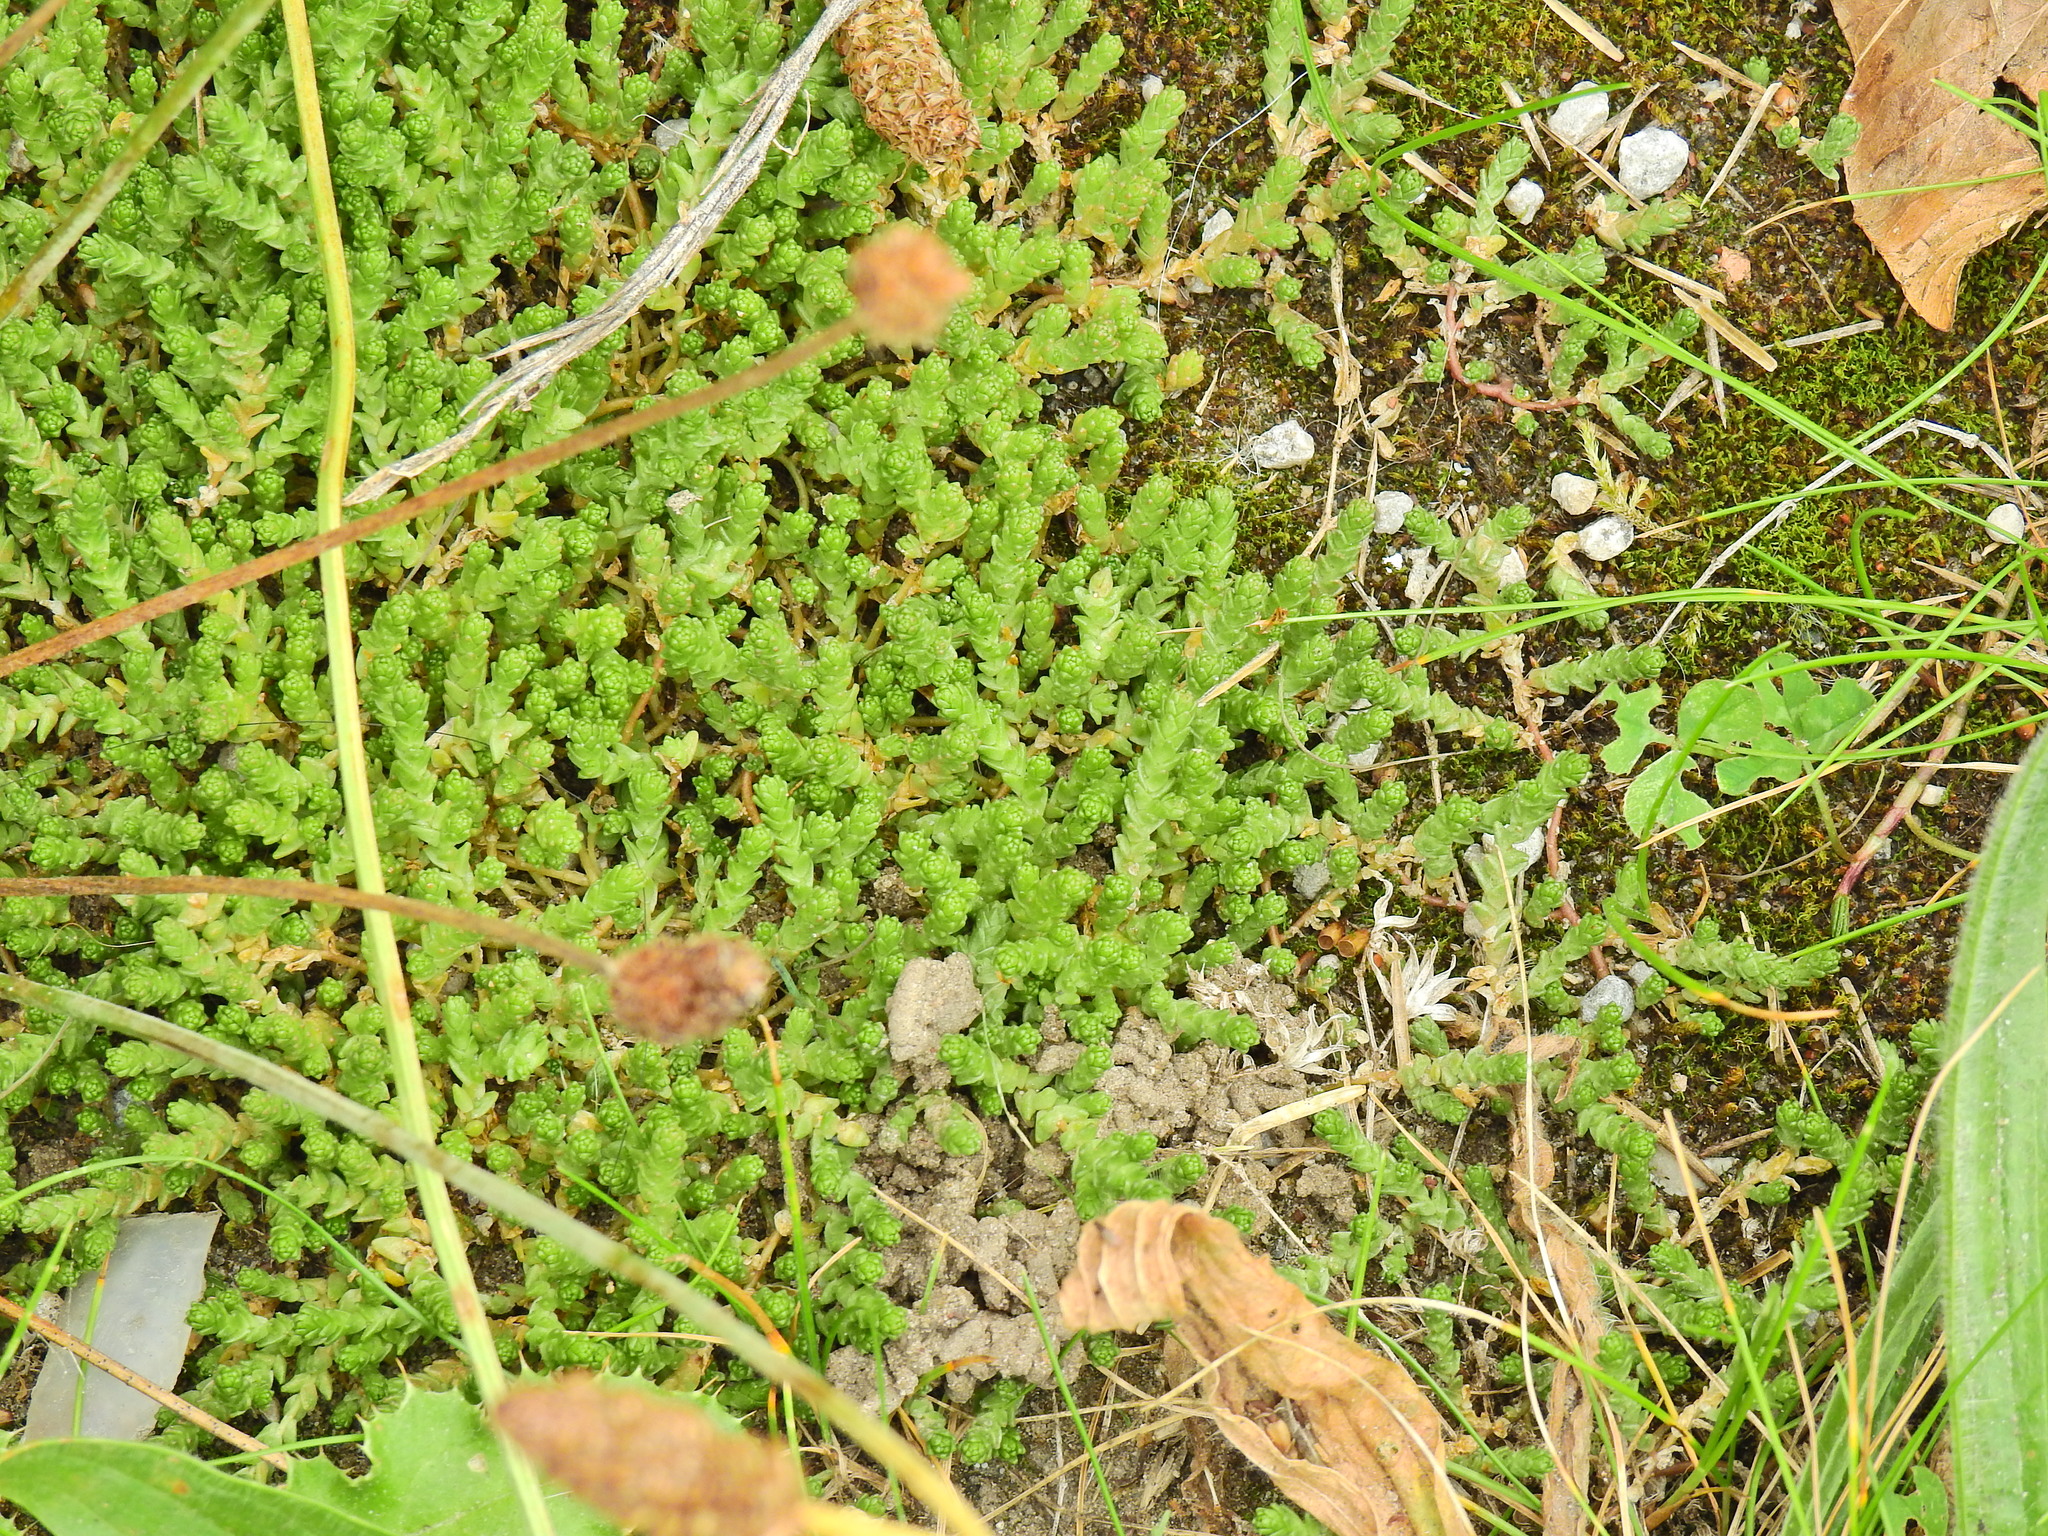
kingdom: Plantae
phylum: Tracheophyta
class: Magnoliopsida
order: Saxifragales
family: Crassulaceae
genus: Sedum
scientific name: Sedum acre
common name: Biting stonecrop
